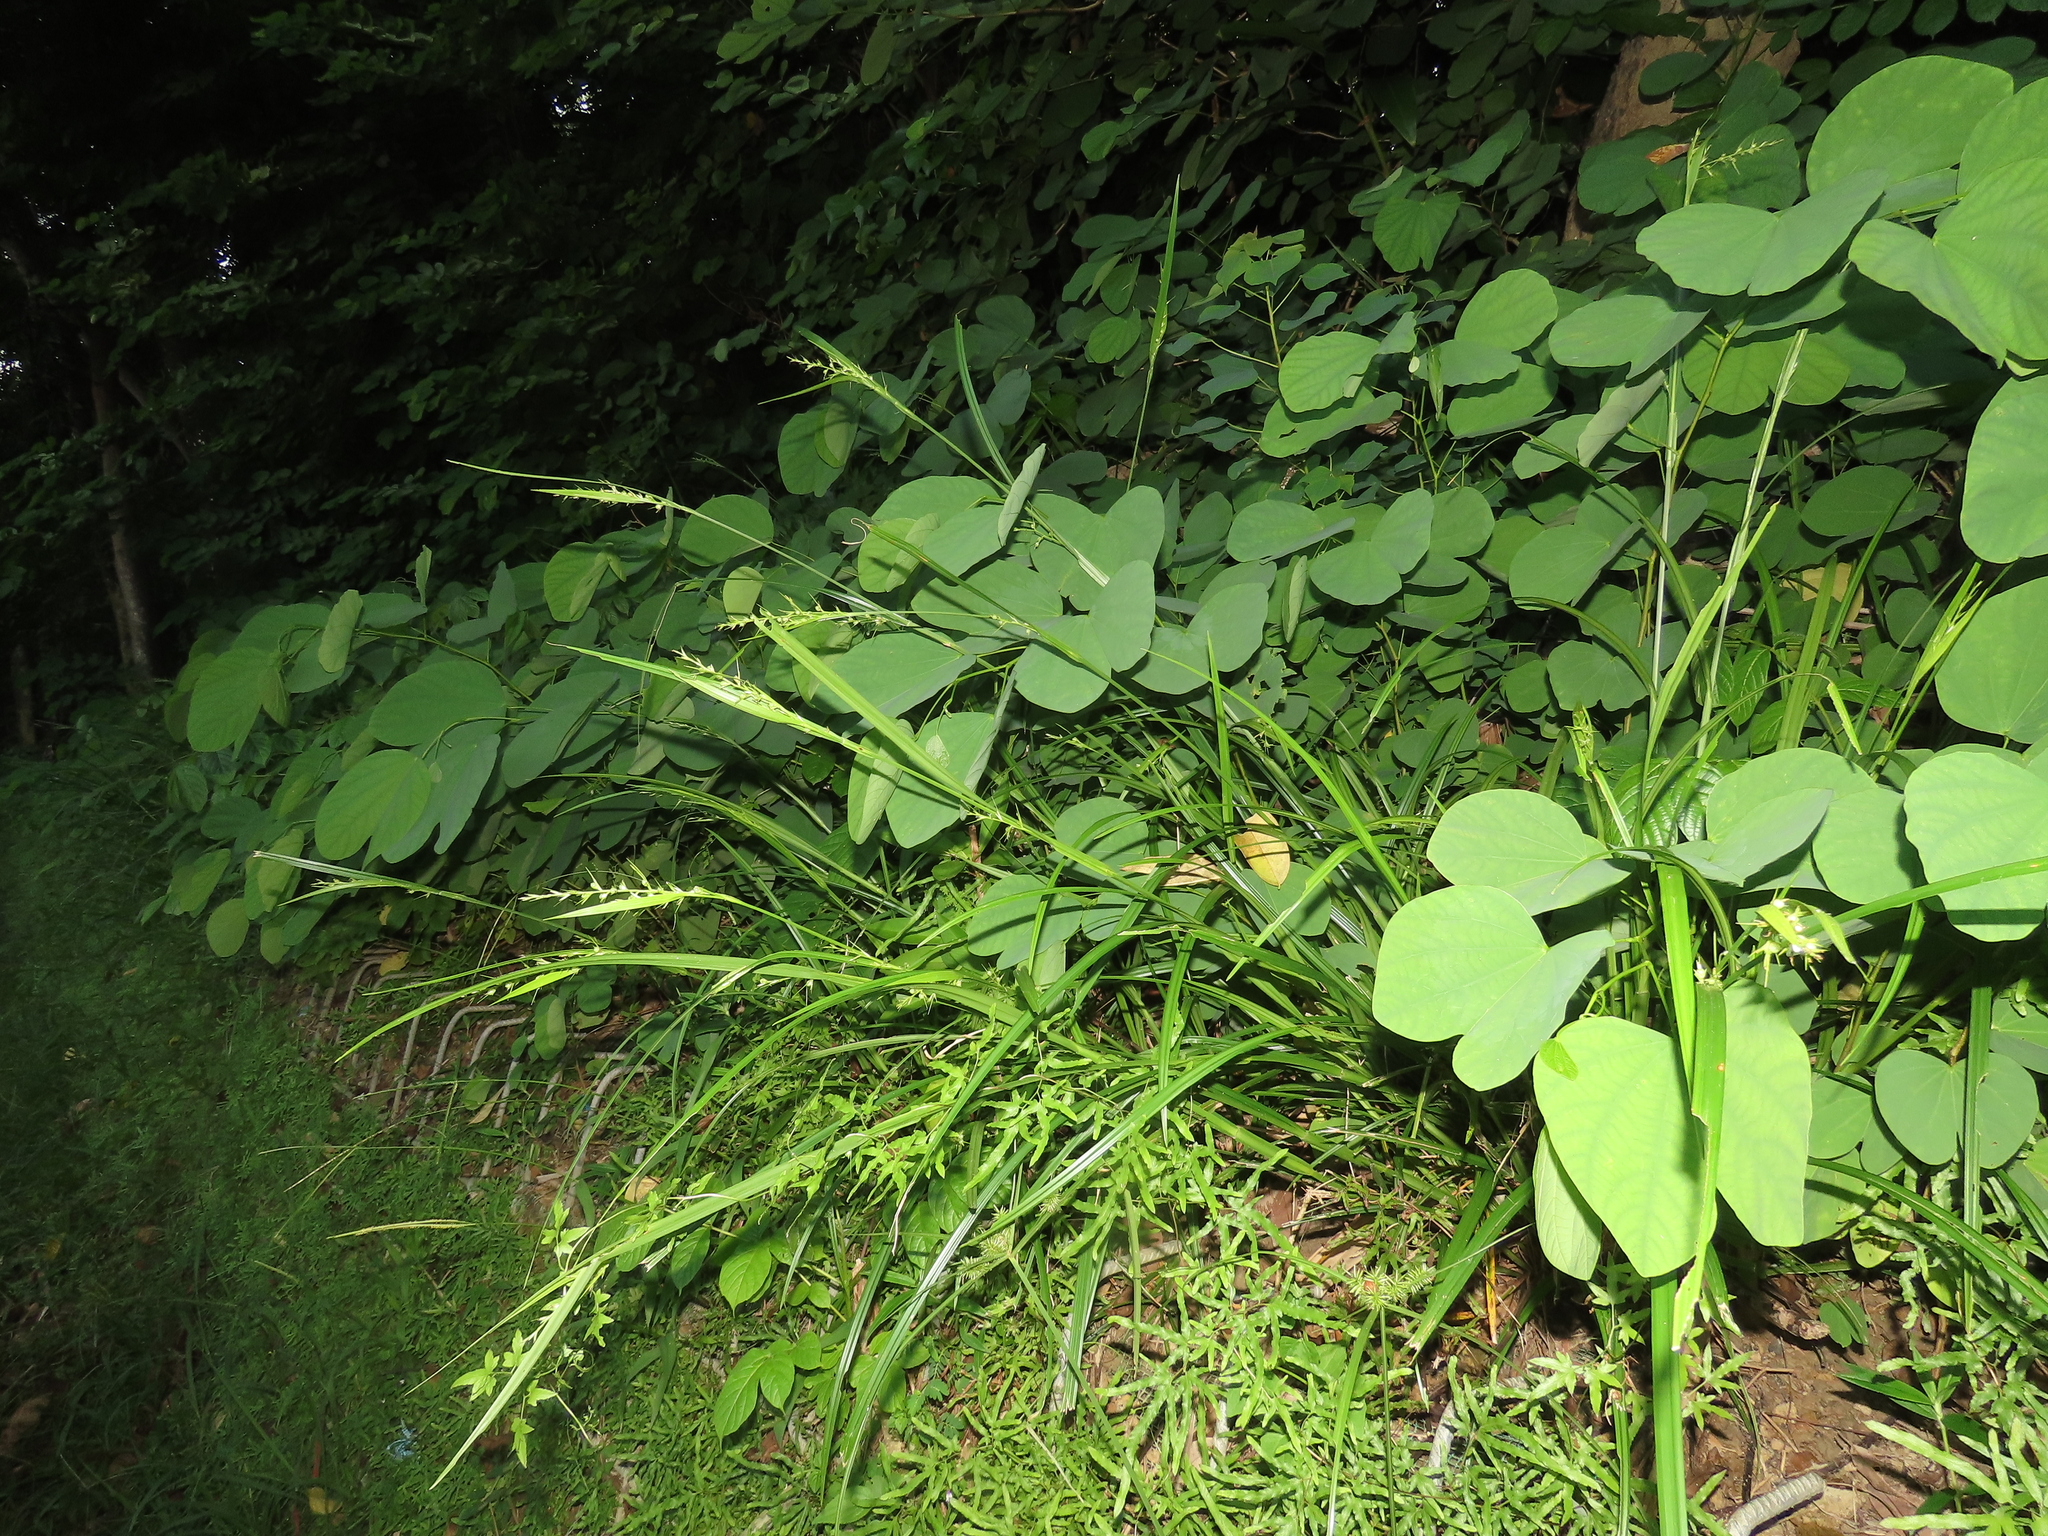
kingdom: Plantae
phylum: Tracheophyta
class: Liliopsida
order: Poales
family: Cyperaceae
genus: Scleria
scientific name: Scleria levis
